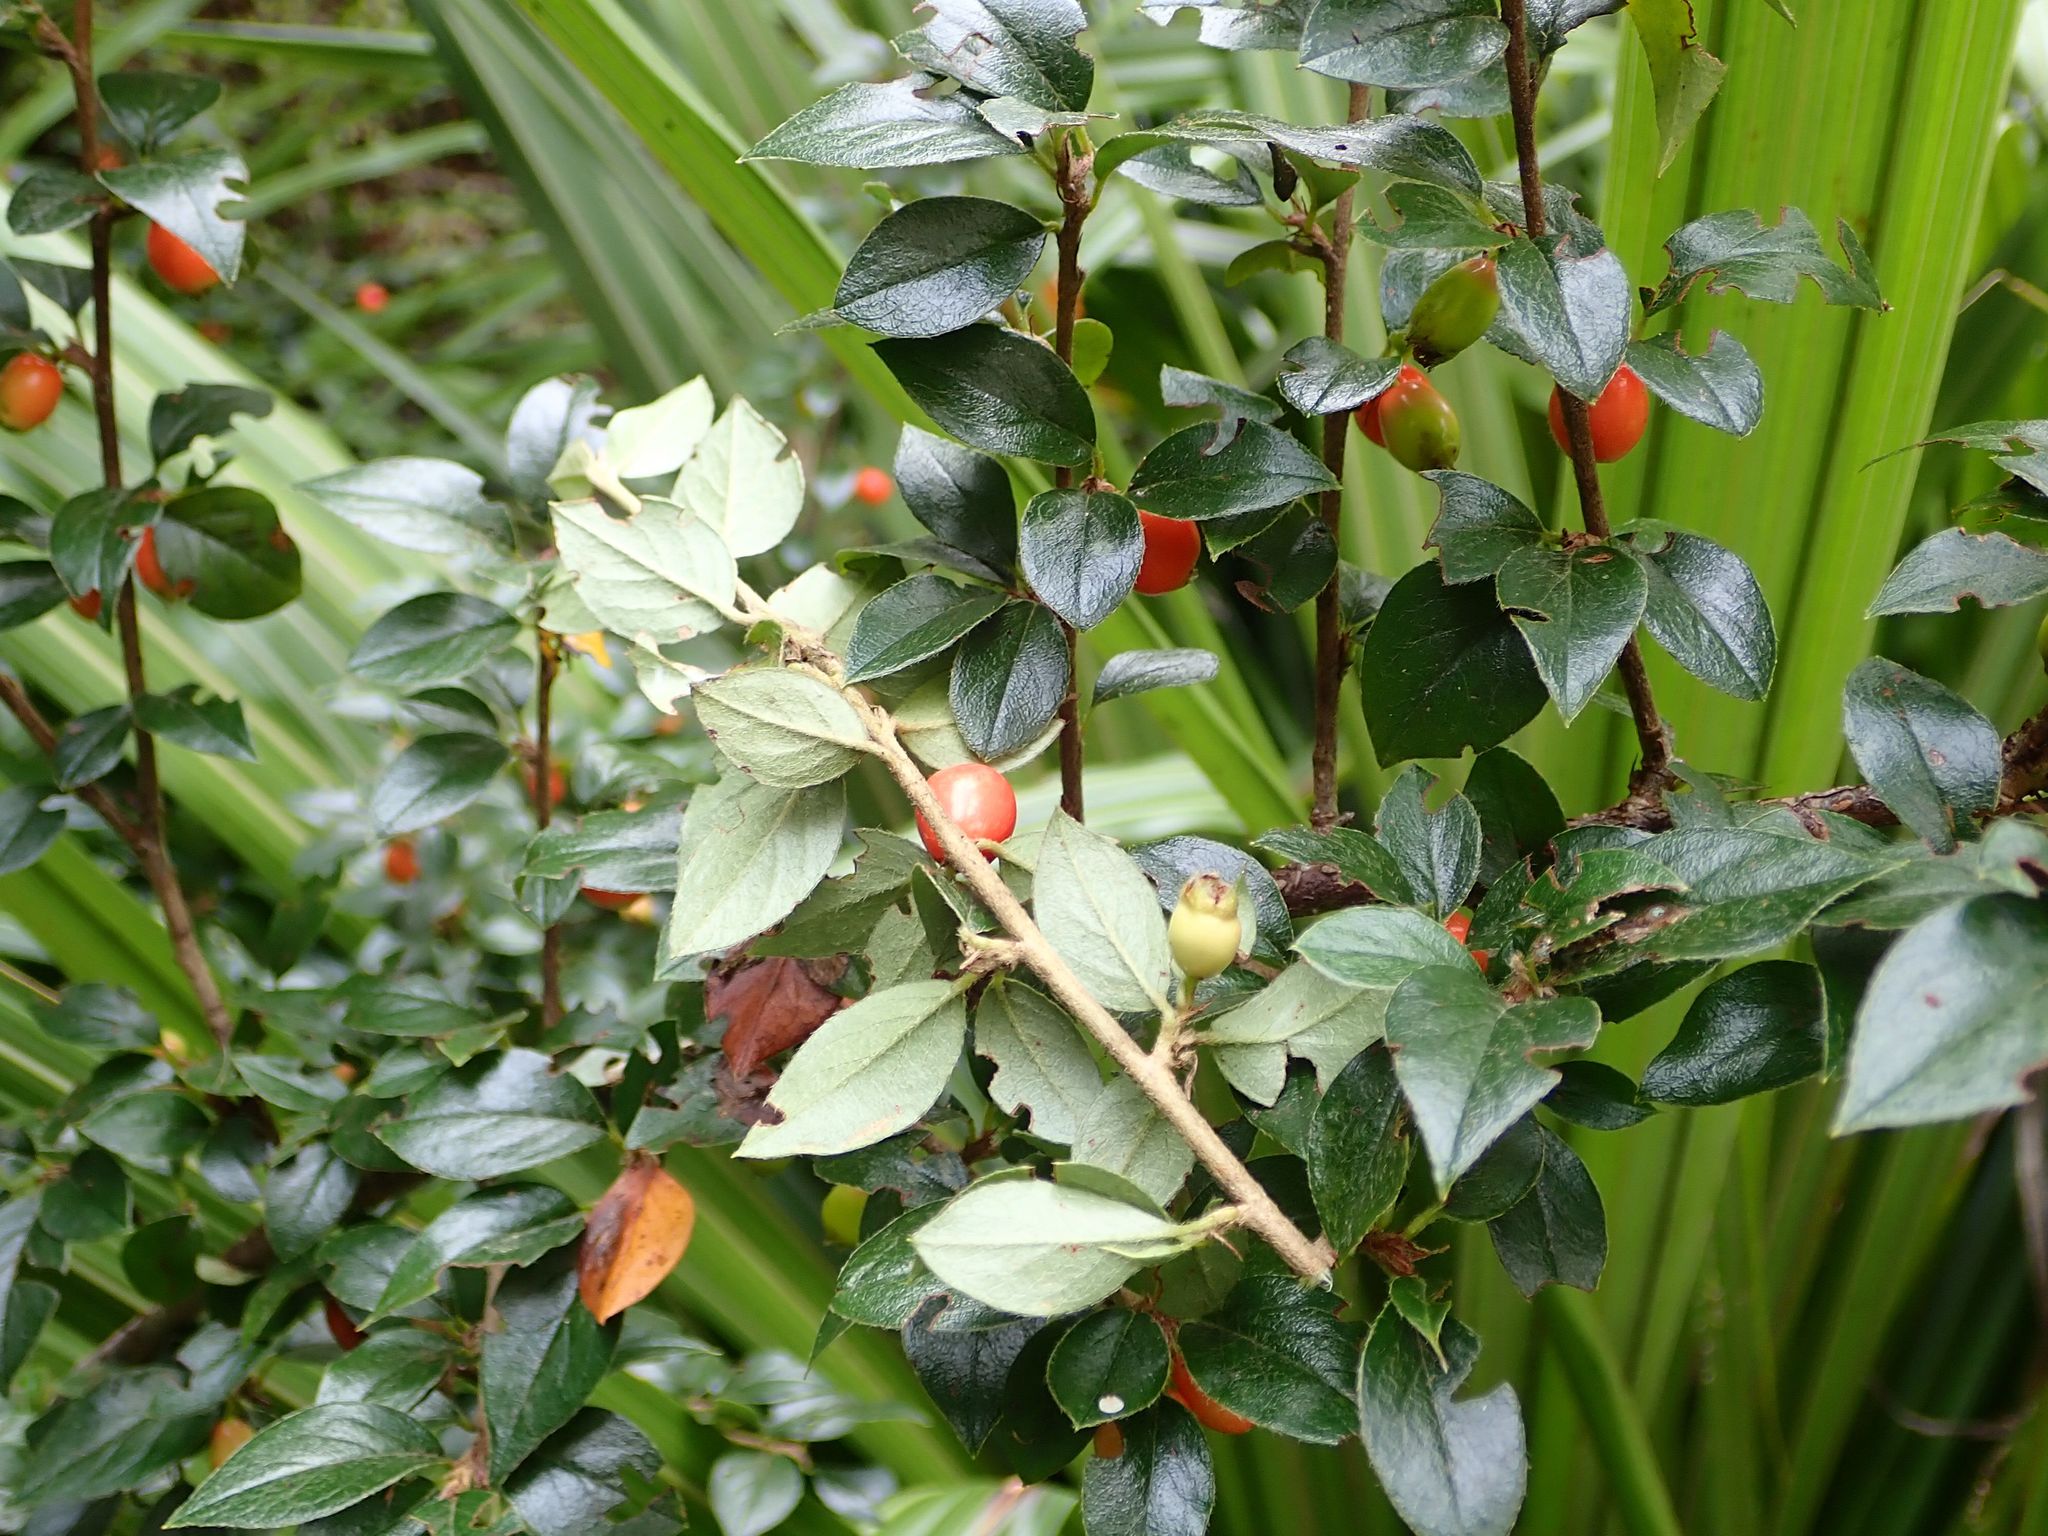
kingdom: Plantae
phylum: Tracheophyta
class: Magnoliopsida
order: Rosales
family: Rosaceae
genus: Cotoneaster
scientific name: Cotoneaster simonsii
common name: Himalayan cotoneaster
